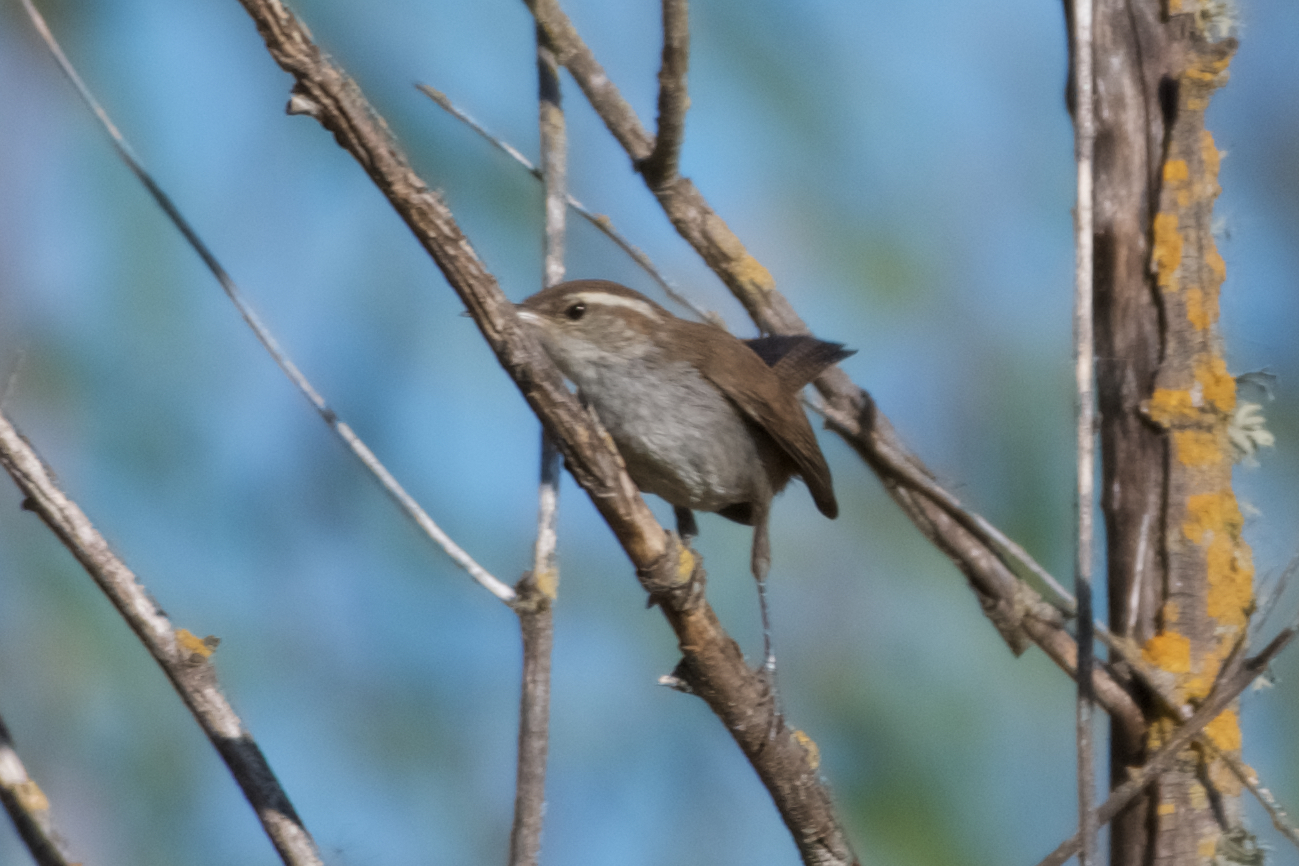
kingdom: Animalia
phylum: Chordata
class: Aves
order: Passeriformes
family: Troglodytidae
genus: Thryomanes
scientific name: Thryomanes bewickii
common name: Bewick's wren
